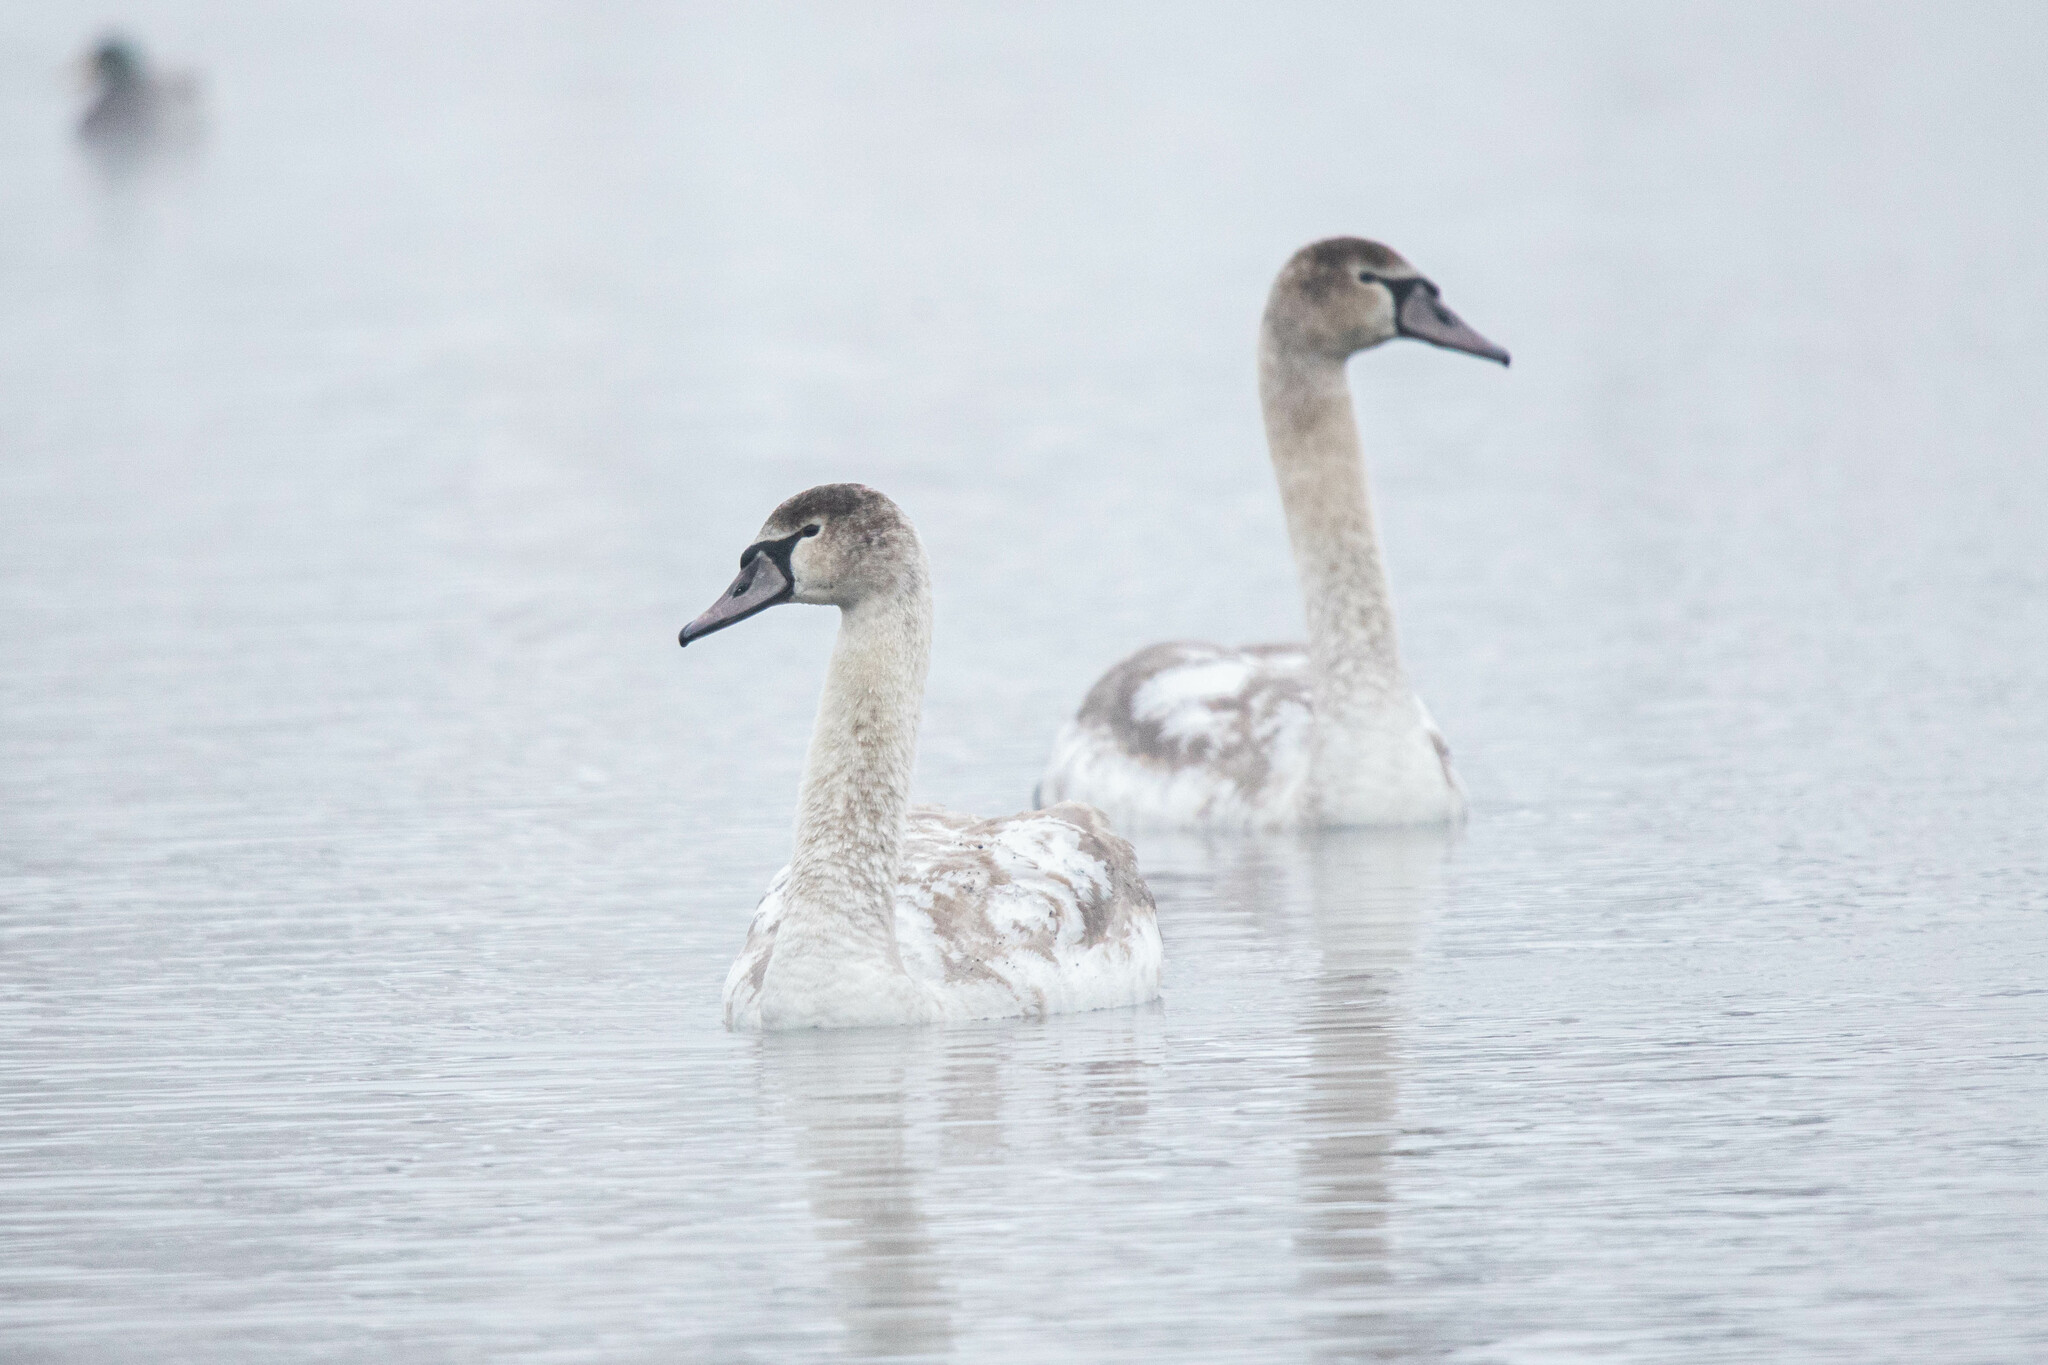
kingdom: Animalia
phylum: Chordata
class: Aves
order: Anseriformes
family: Anatidae
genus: Cygnus
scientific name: Cygnus olor
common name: Mute swan
